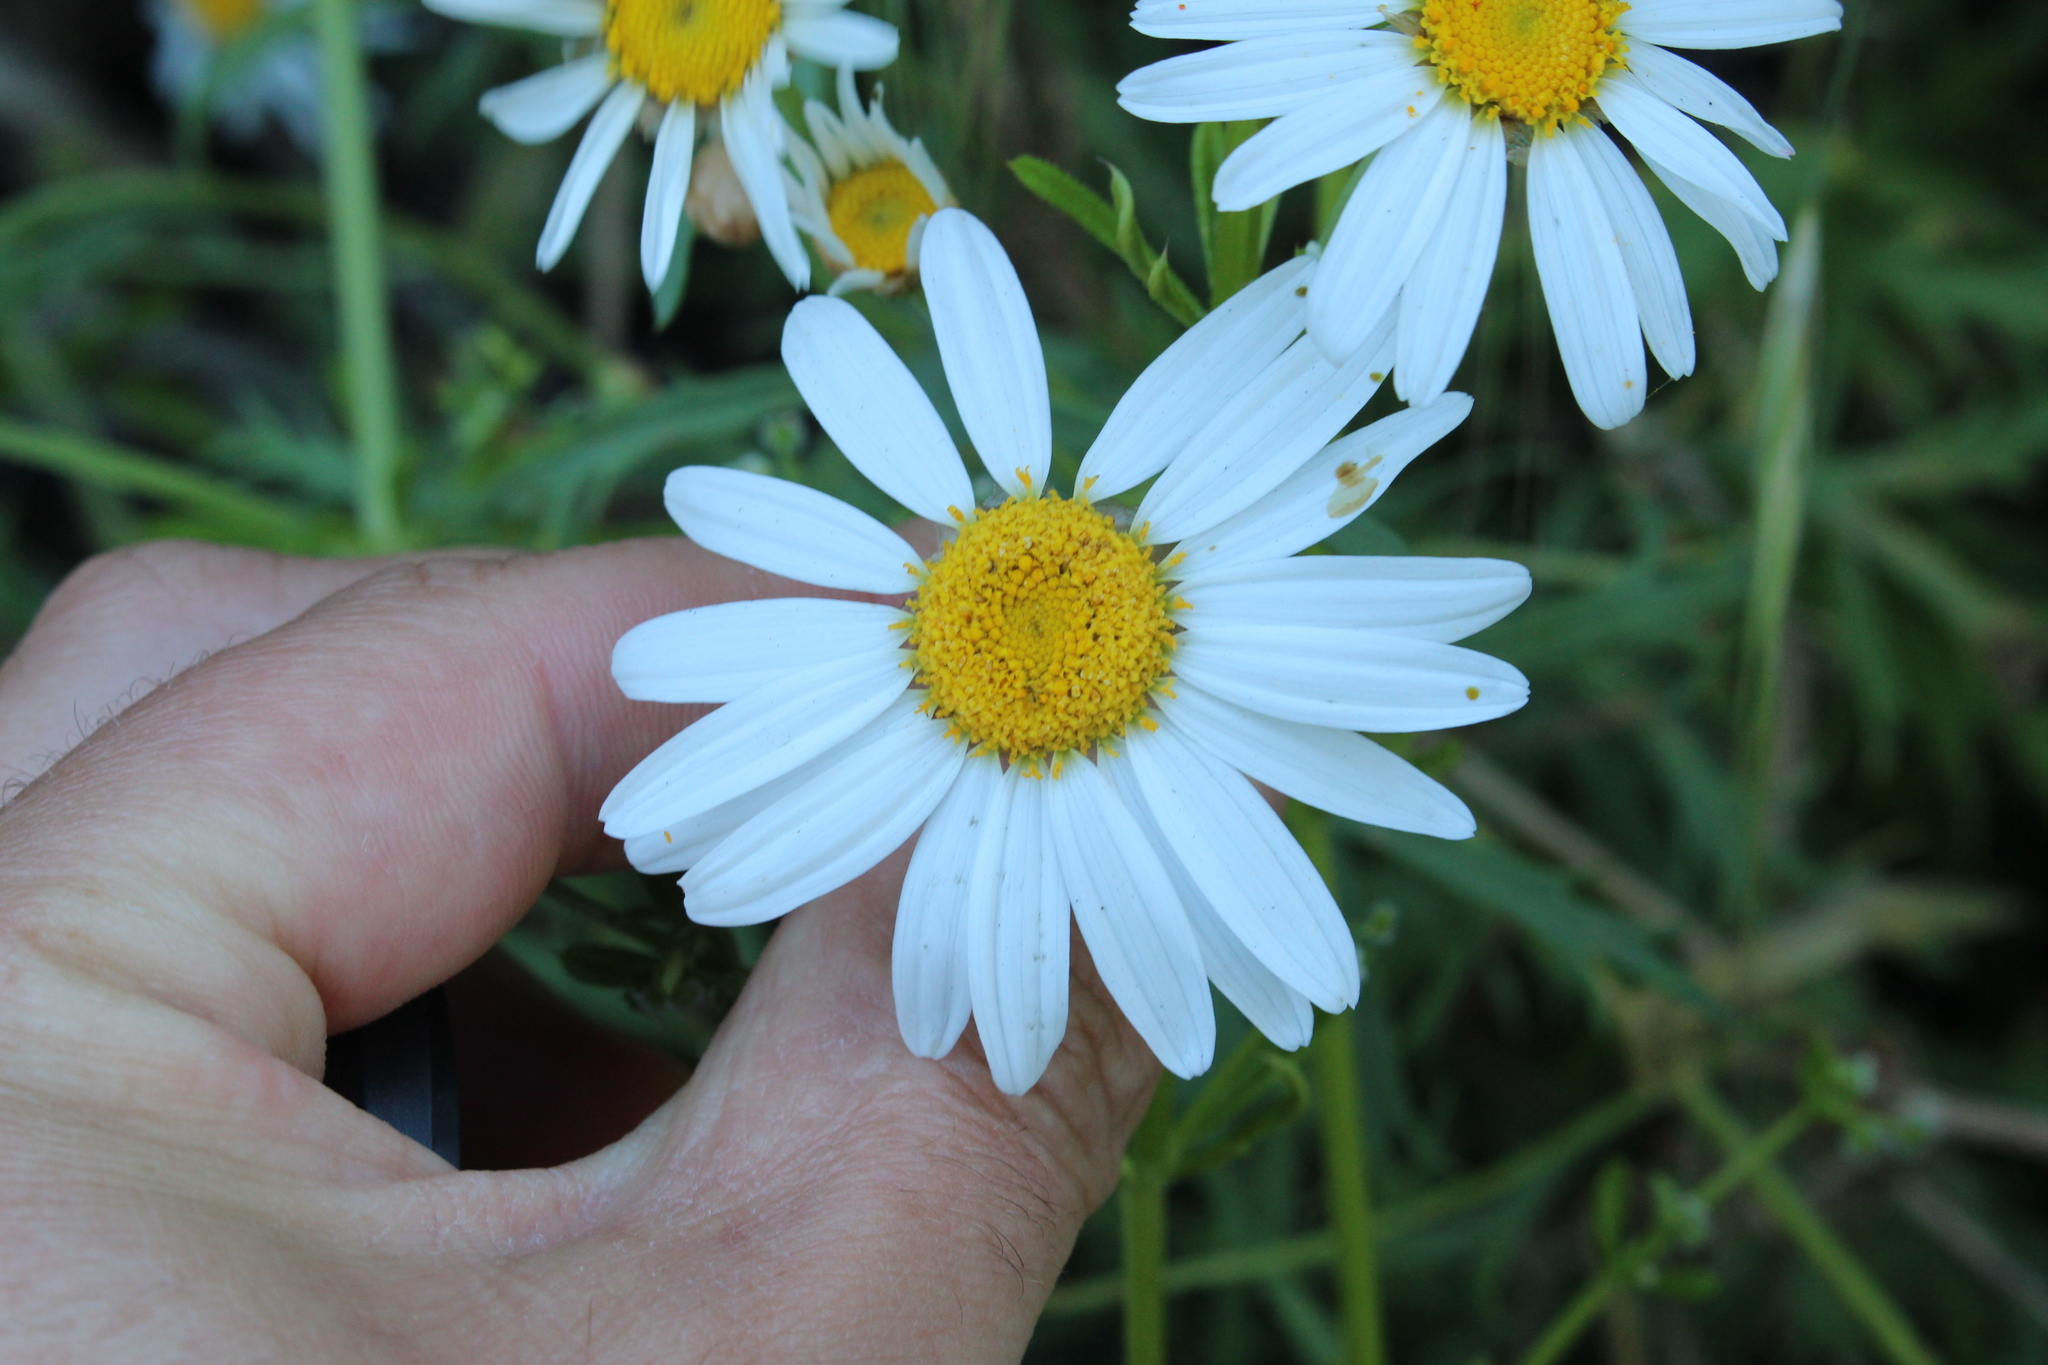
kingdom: Plantae
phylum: Tracheophyta
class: Magnoliopsida
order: Asterales
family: Asteraceae
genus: Argyranthemum
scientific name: Argyranthemum frutescens
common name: Paris daisy
